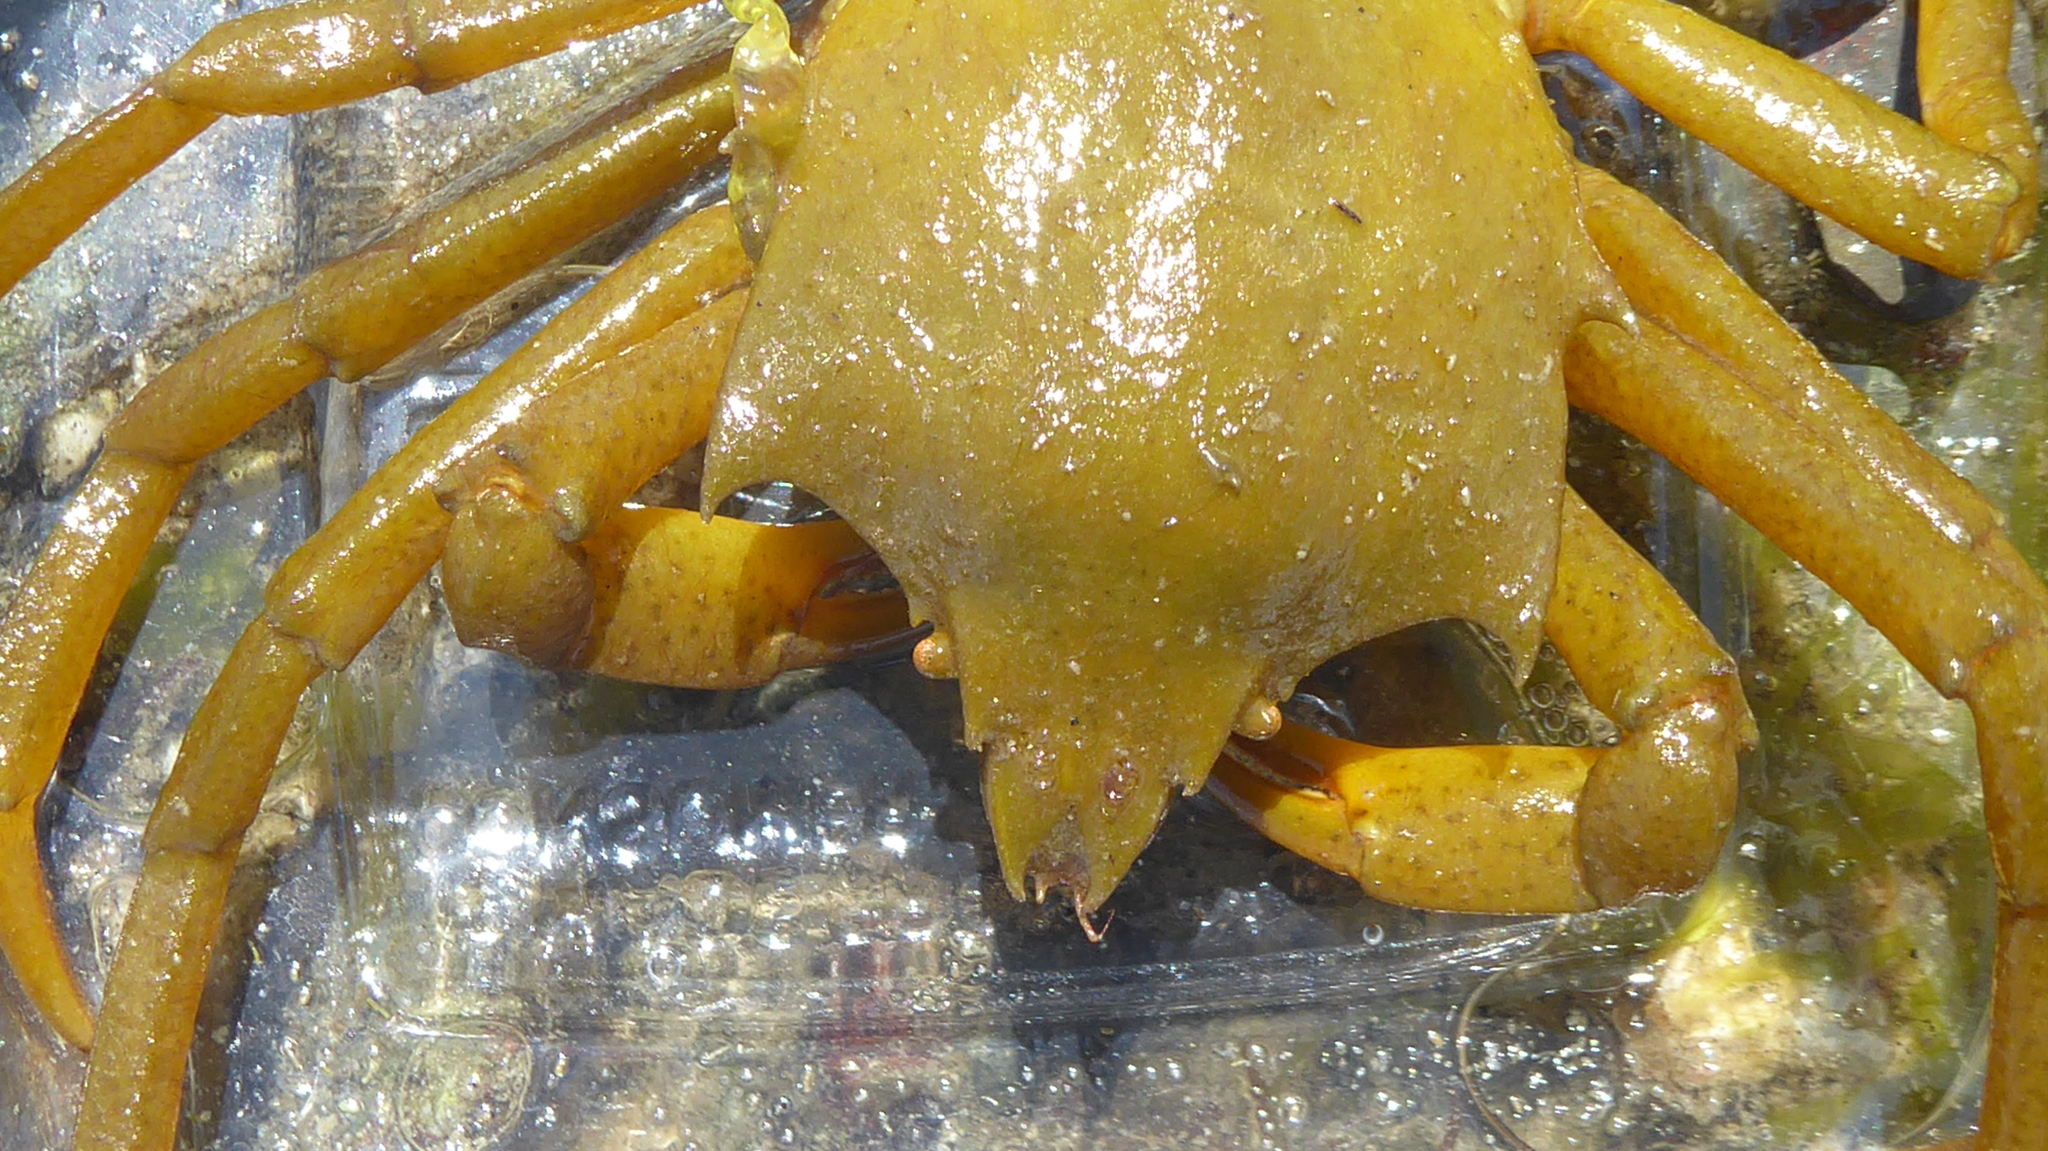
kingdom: Animalia
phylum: Arthropoda
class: Malacostraca
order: Decapoda
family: Epialtidae
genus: Pugettia
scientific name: Pugettia producta
